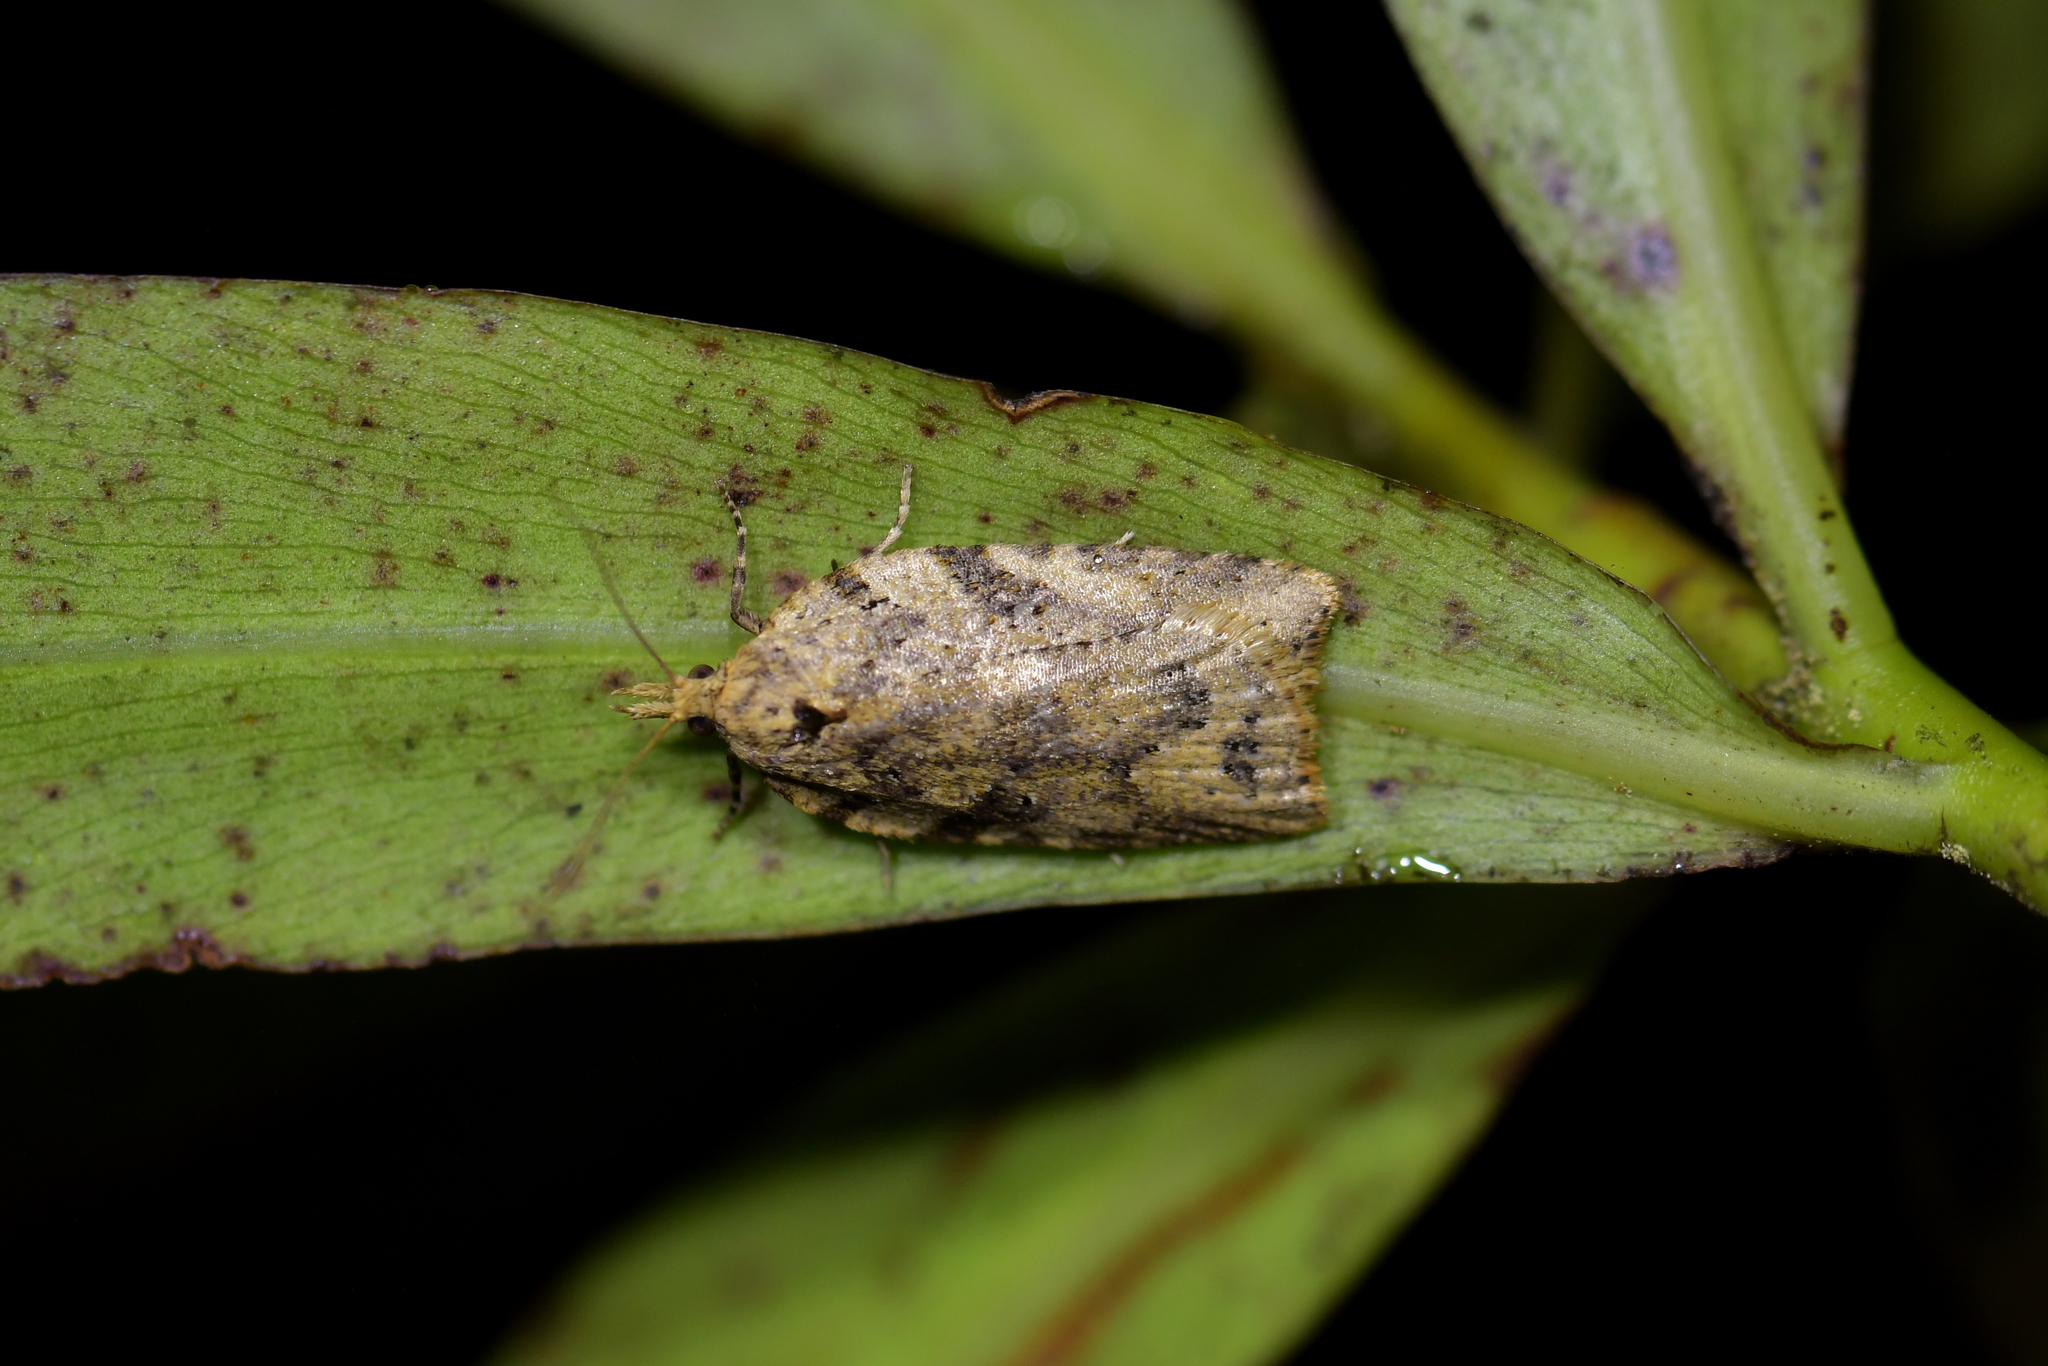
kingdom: Animalia
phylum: Arthropoda
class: Insecta
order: Lepidoptera
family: Tortricidae
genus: Ctenopseustis
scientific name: Ctenopseustis obliquana
